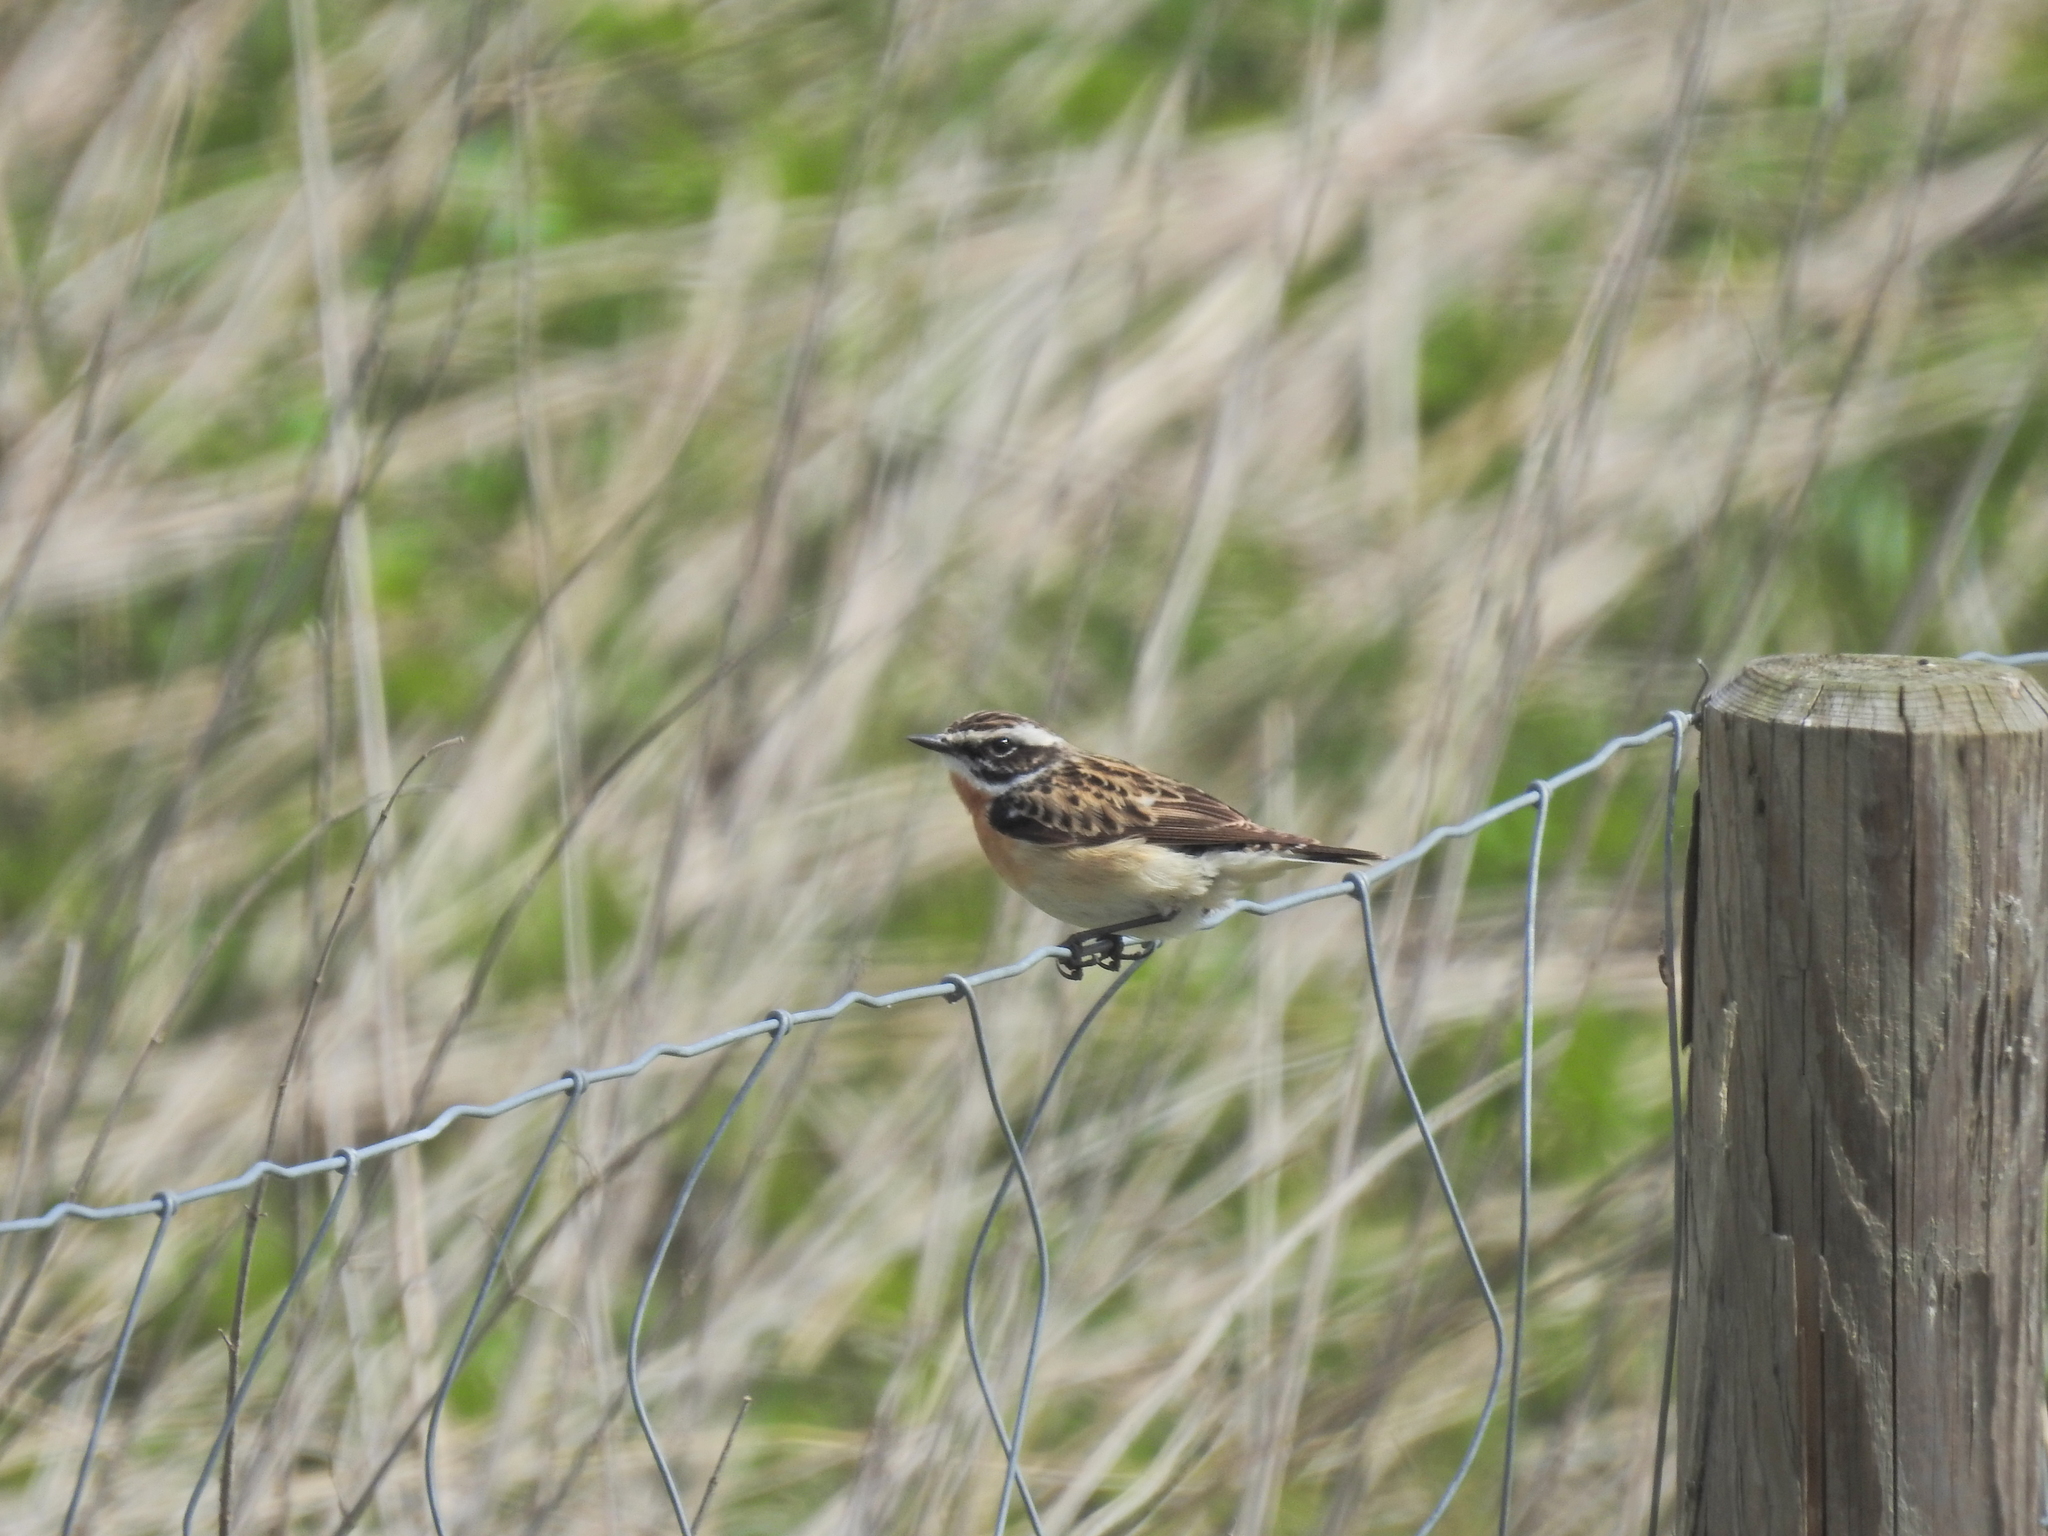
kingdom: Animalia
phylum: Chordata
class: Aves
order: Passeriformes
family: Muscicapidae
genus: Saxicola
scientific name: Saxicola rubetra
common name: Whinchat
